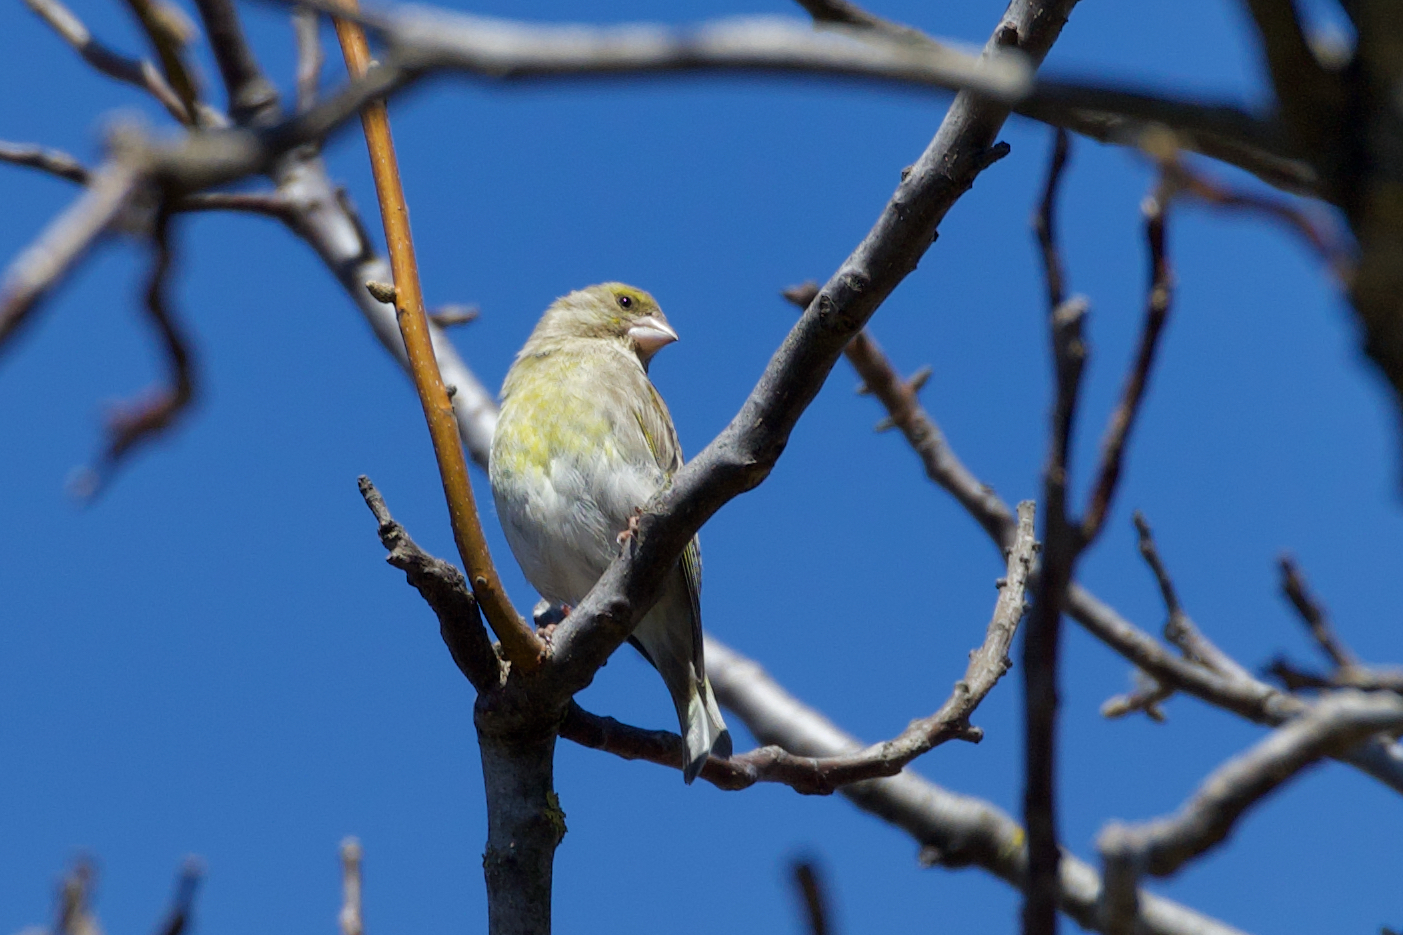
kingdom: Plantae
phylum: Tracheophyta
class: Liliopsida
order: Poales
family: Poaceae
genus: Chloris
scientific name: Chloris chloris
